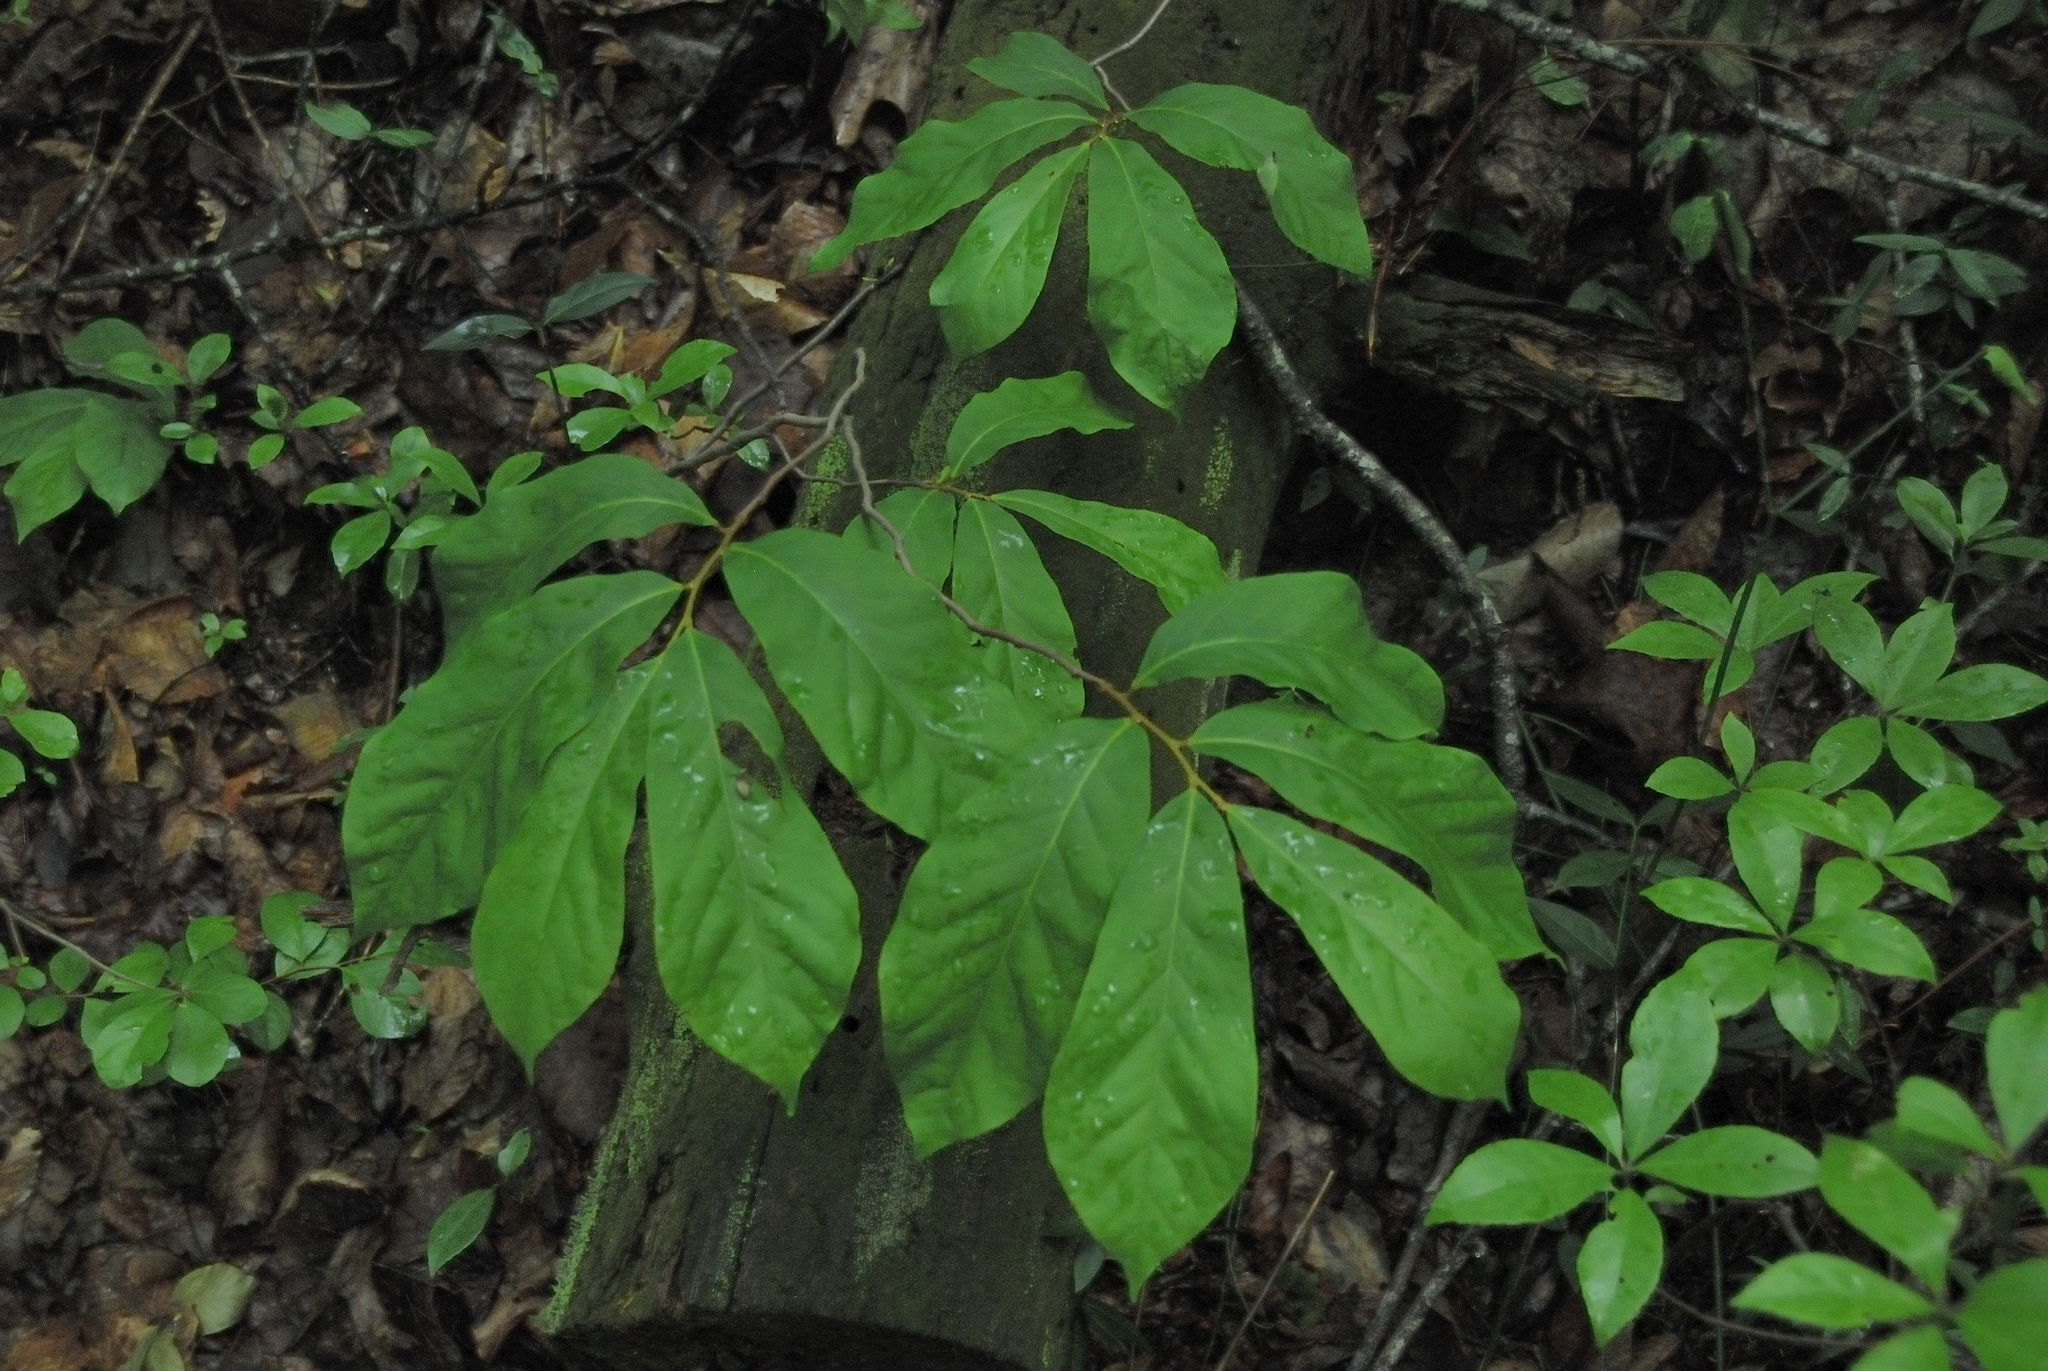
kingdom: Plantae
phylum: Tracheophyta
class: Magnoliopsida
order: Magnoliales
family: Annonaceae
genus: Asimina
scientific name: Asimina parviflora
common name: Dwarf pawpaw
